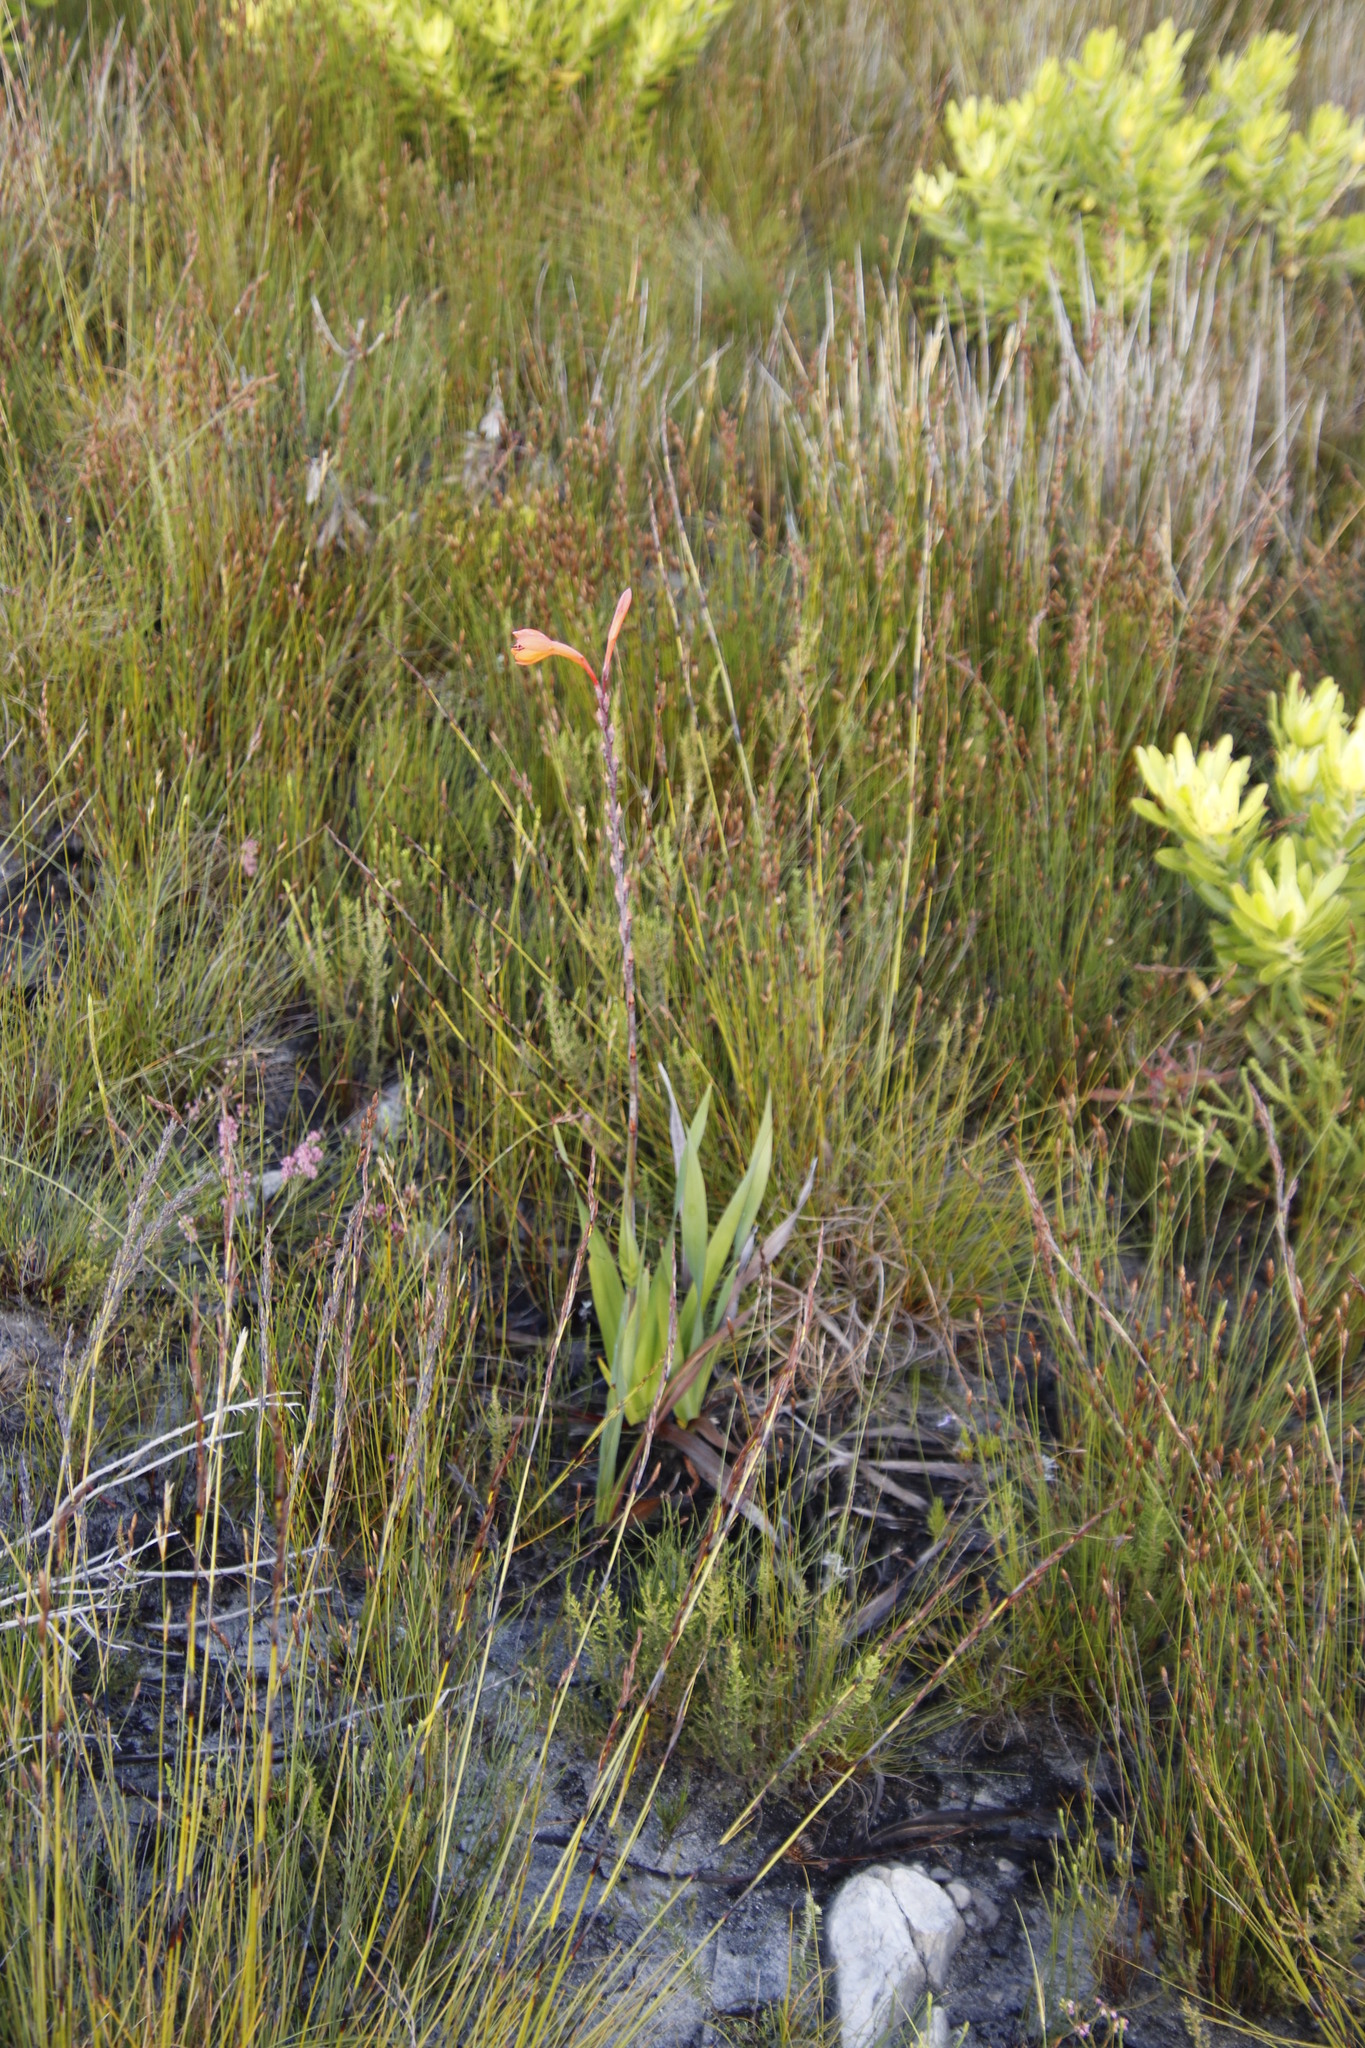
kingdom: Plantae
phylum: Tracheophyta
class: Liliopsida
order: Asparagales
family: Iridaceae
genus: Watsonia
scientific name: Watsonia tabularis
